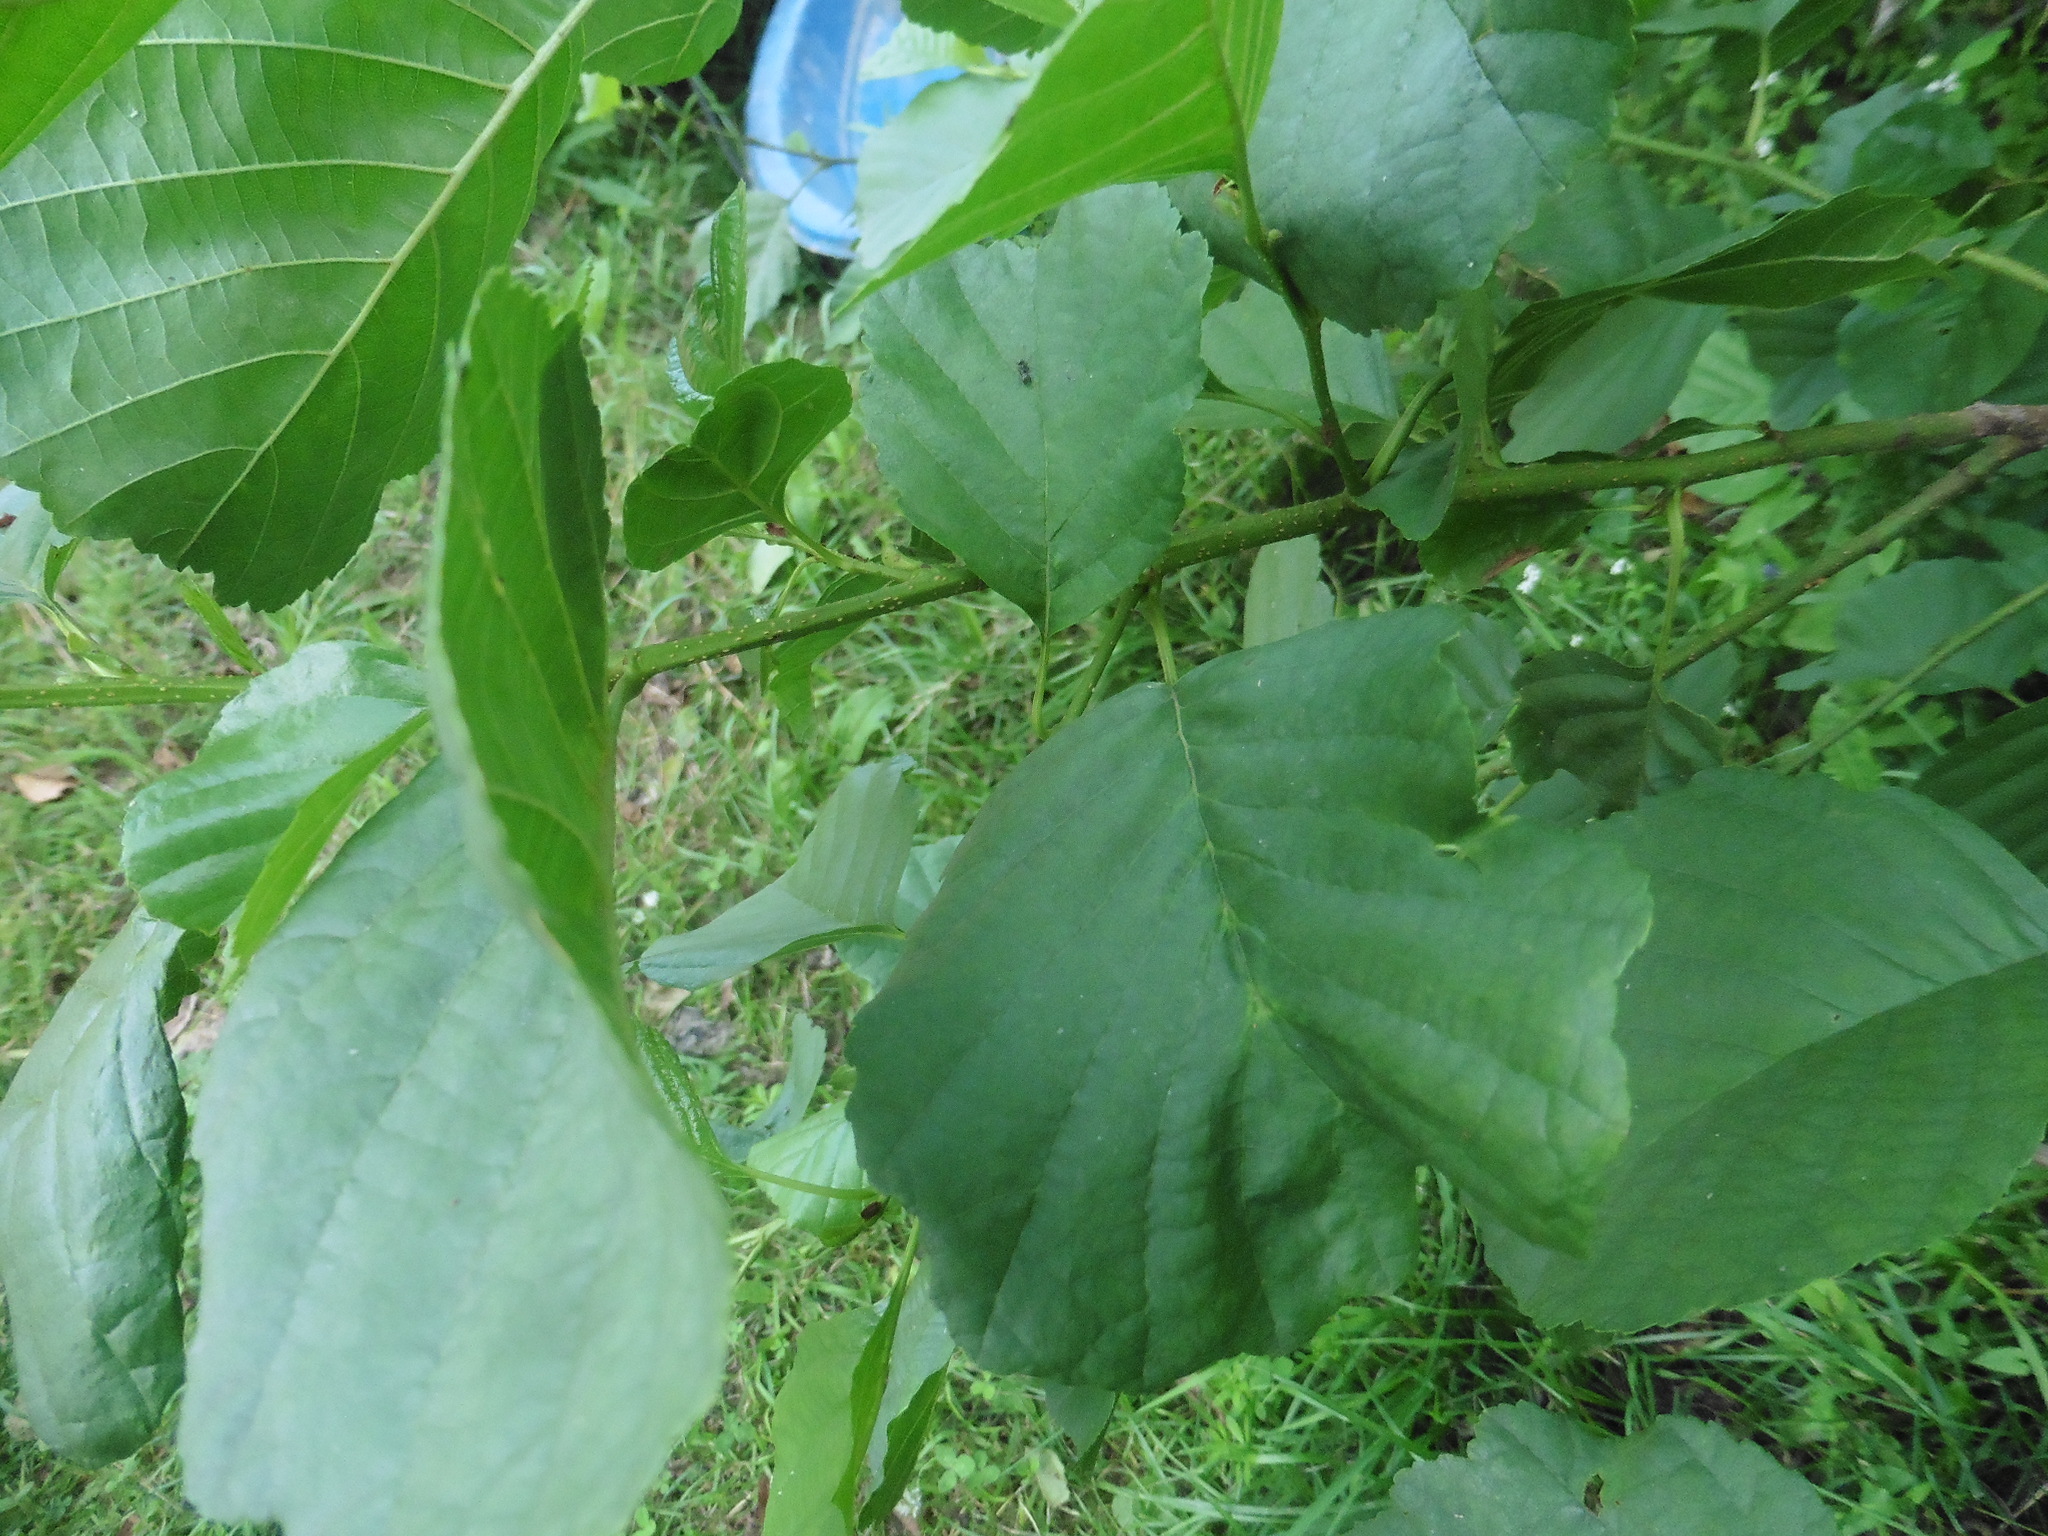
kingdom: Plantae
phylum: Tracheophyta
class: Magnoliopsida
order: Fagales
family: Betulaceae
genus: Alnus
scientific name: Alnus glutinosa
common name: Black alder
